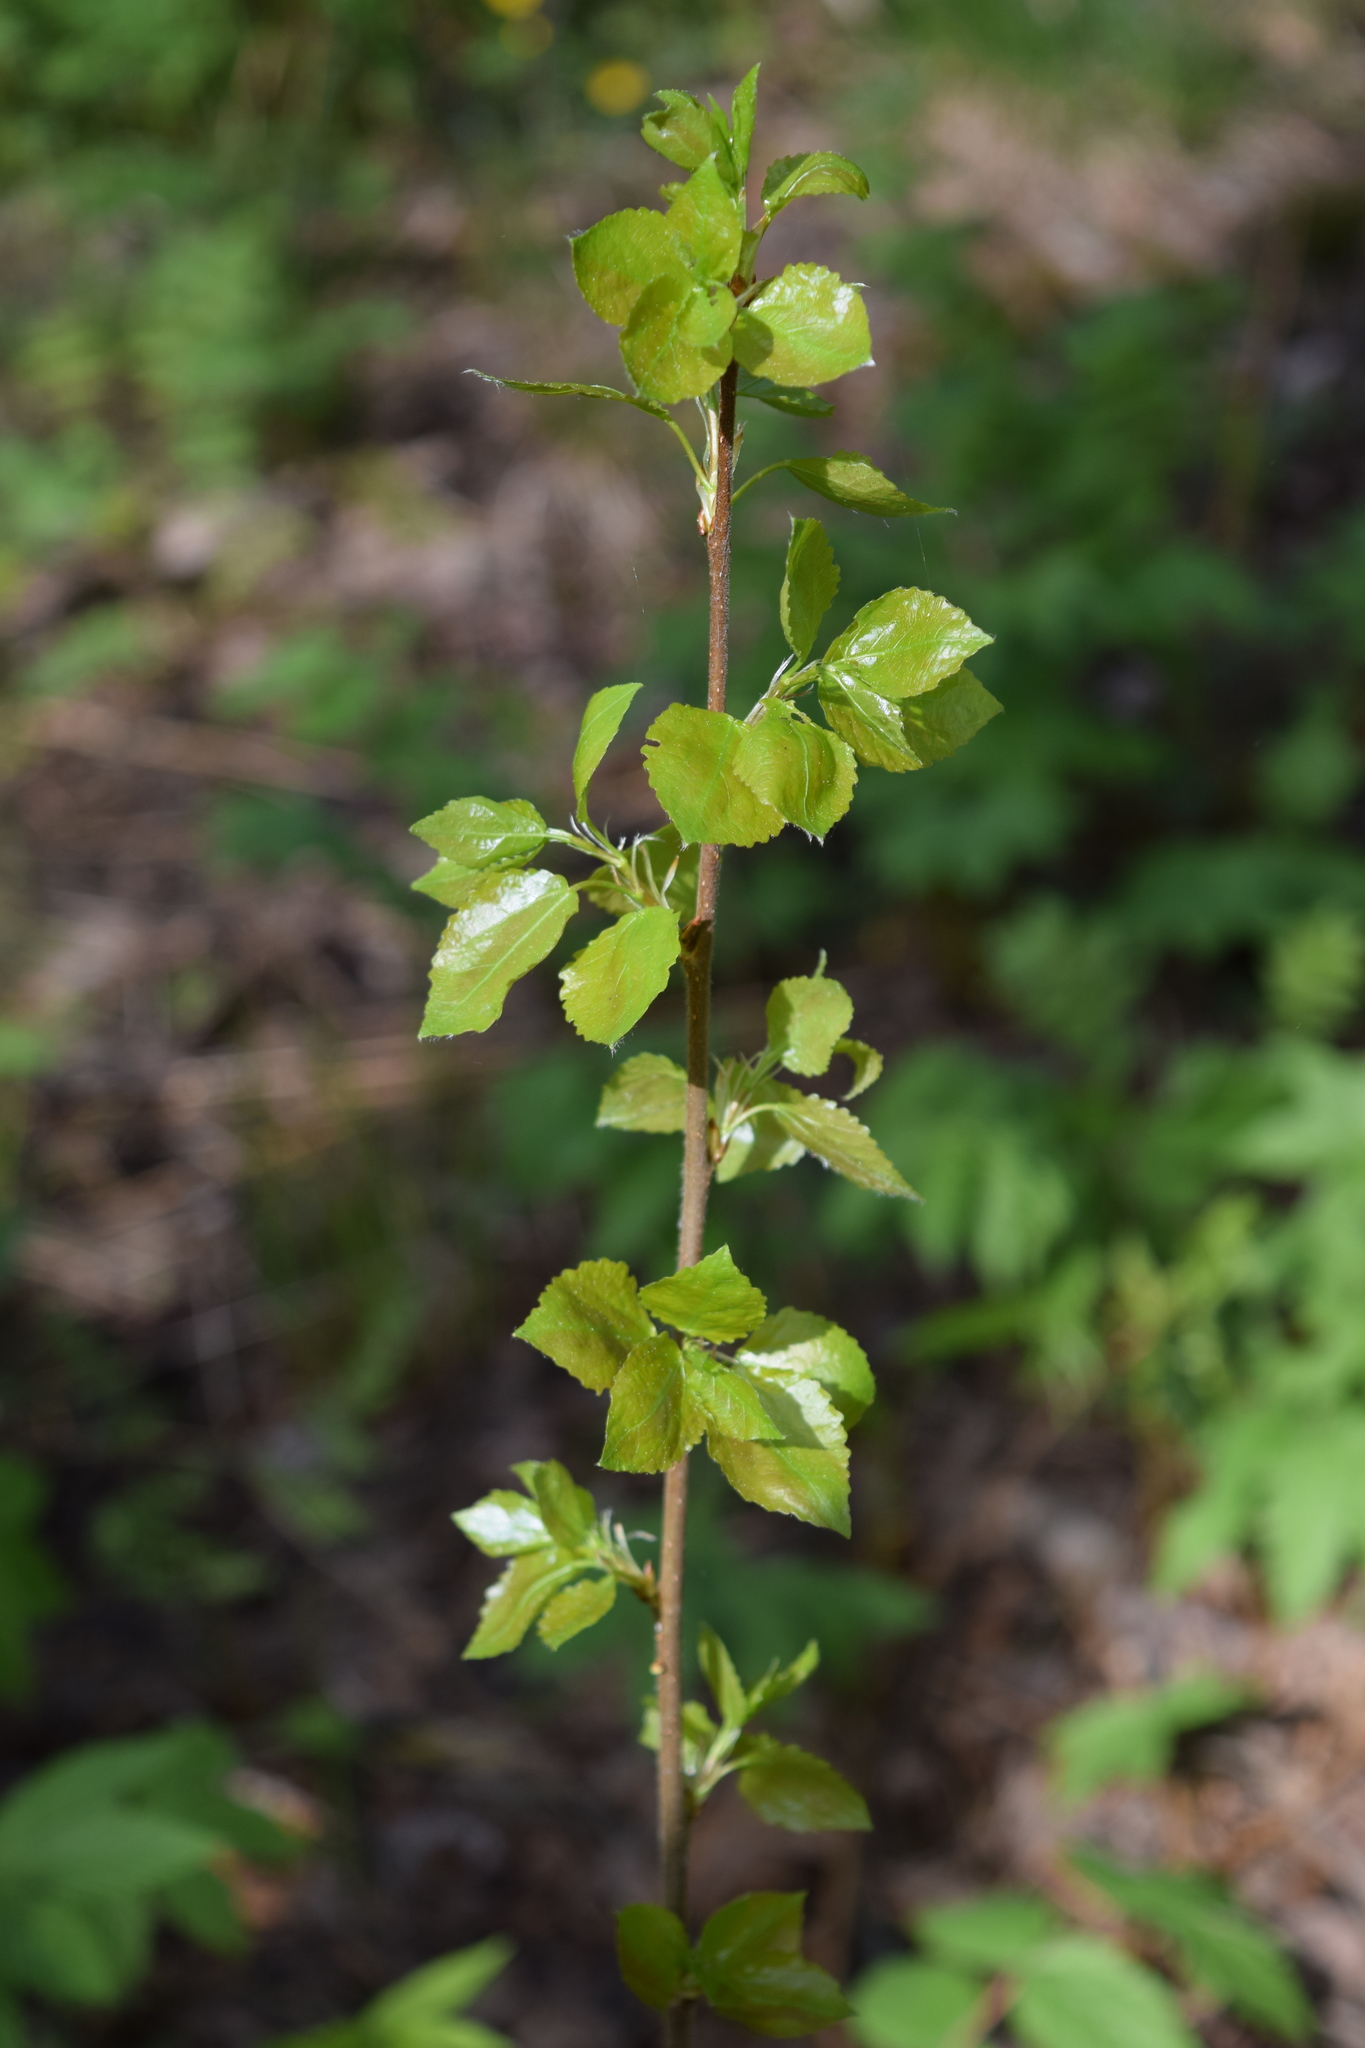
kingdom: Plantae
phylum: Tracheophyta
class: Magnoliopsida
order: Malpighiales
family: Salicaceae
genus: Populus
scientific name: Populus tremula
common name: European aspen
